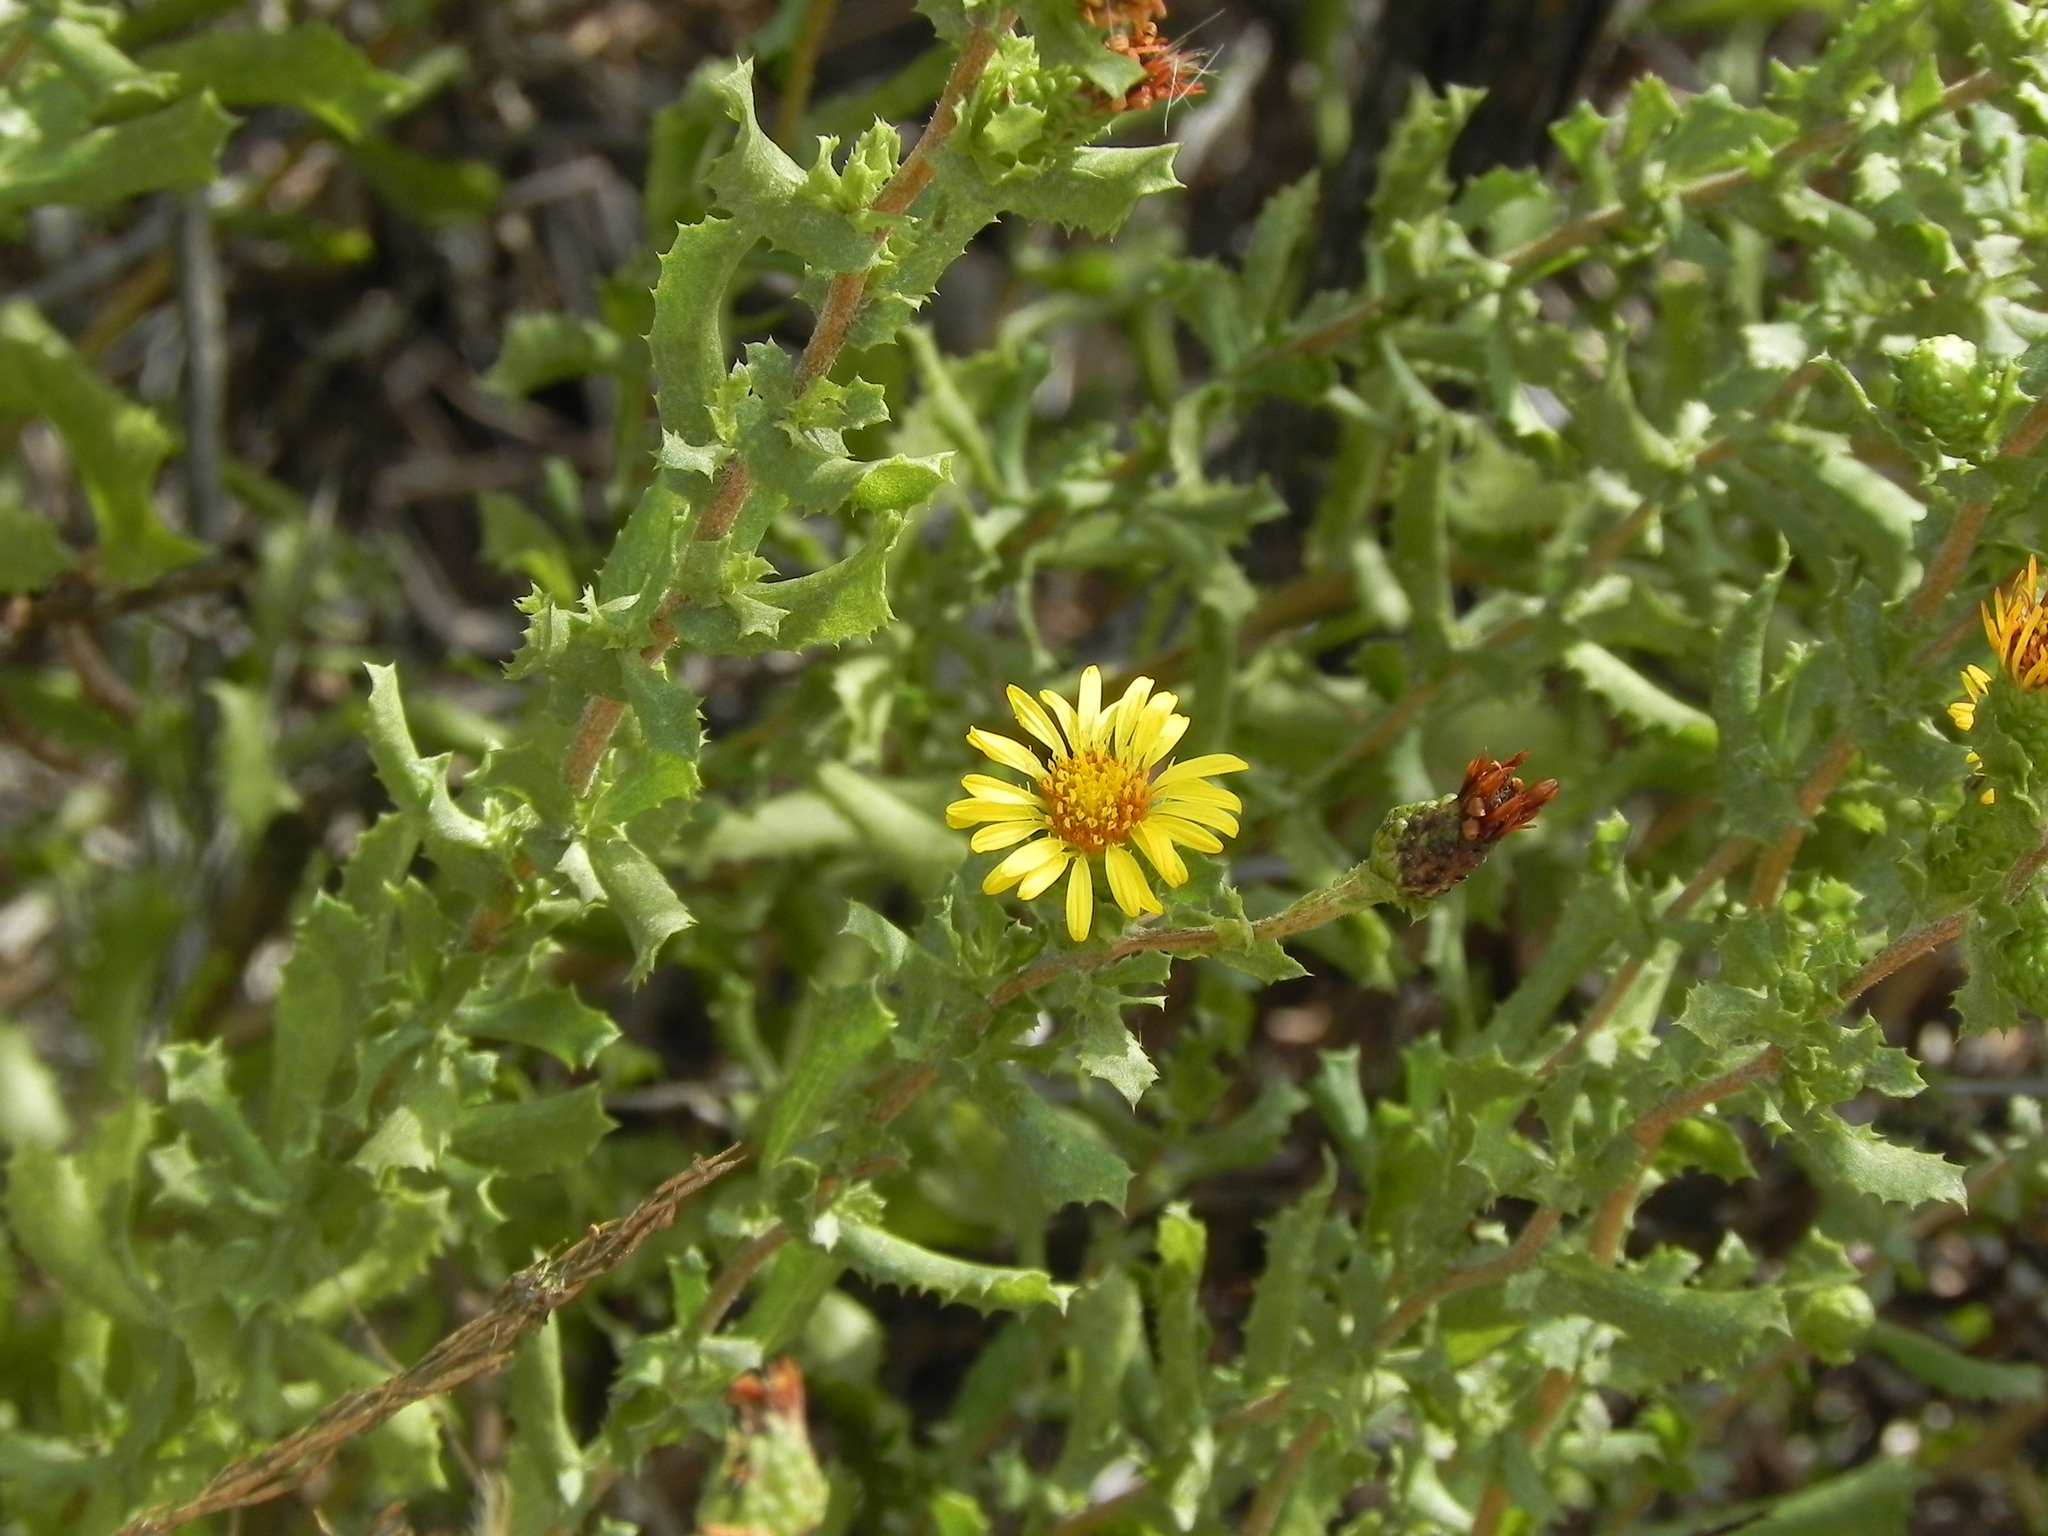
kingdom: Plantae
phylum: Tracheophyta
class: Magnoliopsida
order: Asterales
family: Asteraceae
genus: Hazardia
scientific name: Hazardia berberidis
